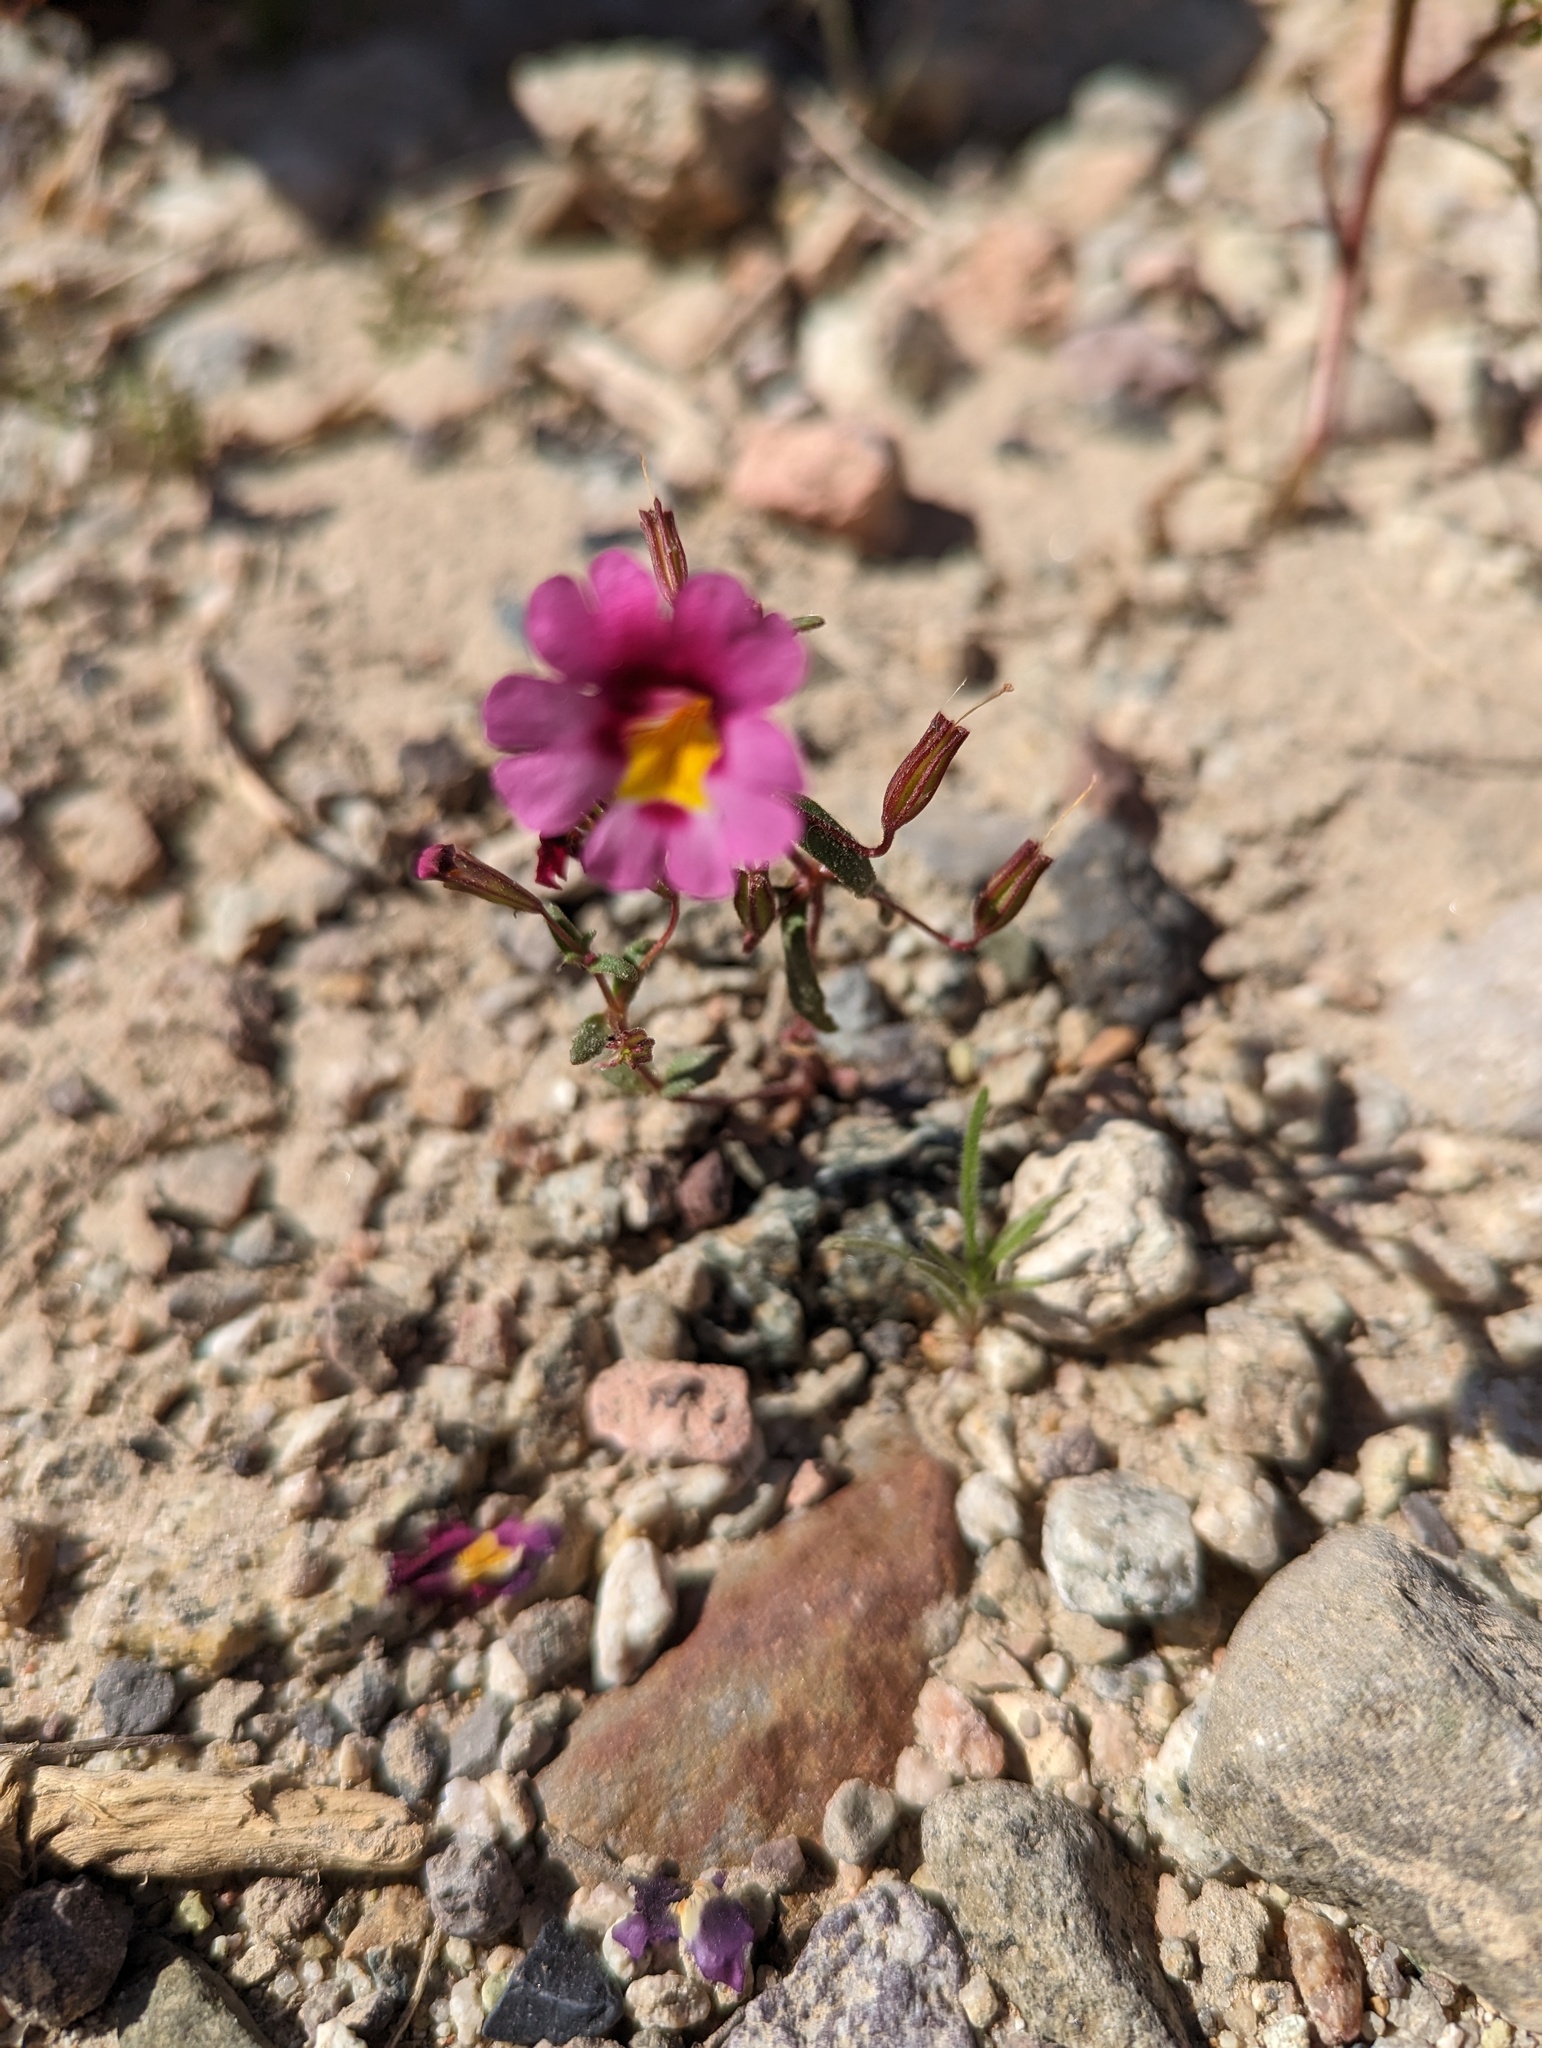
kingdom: Plantae
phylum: Tracheophyta
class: Magnoliopsida
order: Lamiales
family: Phrymaceae
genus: Erythranthe
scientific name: Erythranthe rhodopetra
